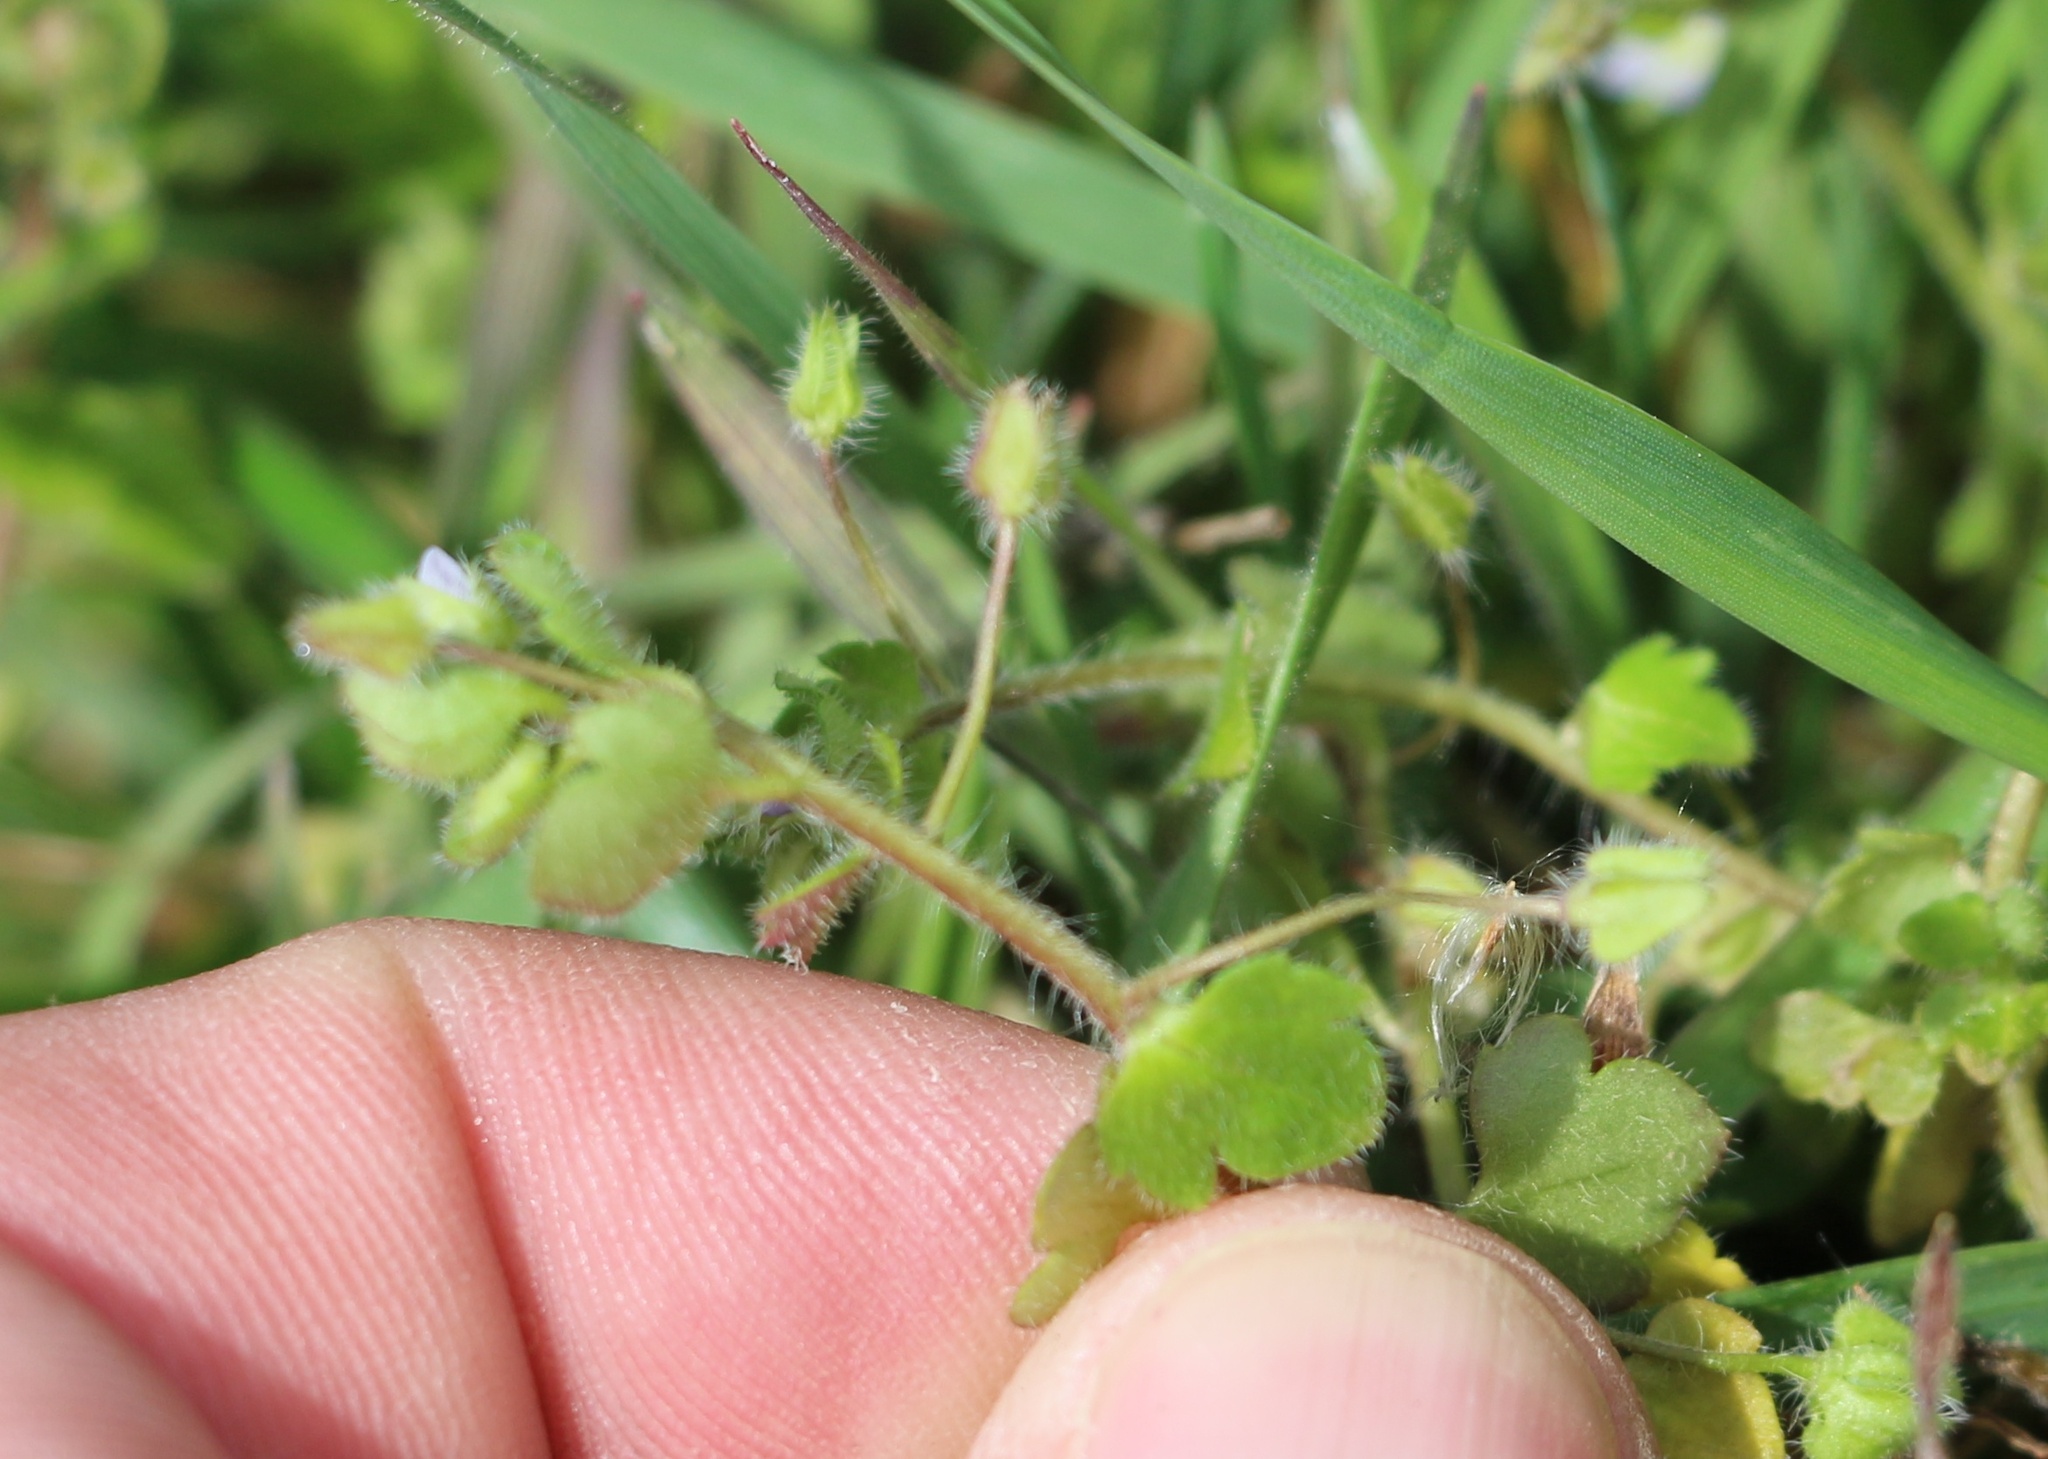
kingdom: Plantae
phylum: Tracheophyta
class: Magnoliopsida
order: Lamiales
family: Plantaginaceae
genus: Veronica
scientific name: Veronica sublobata
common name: False ivy-leaved speedwell
